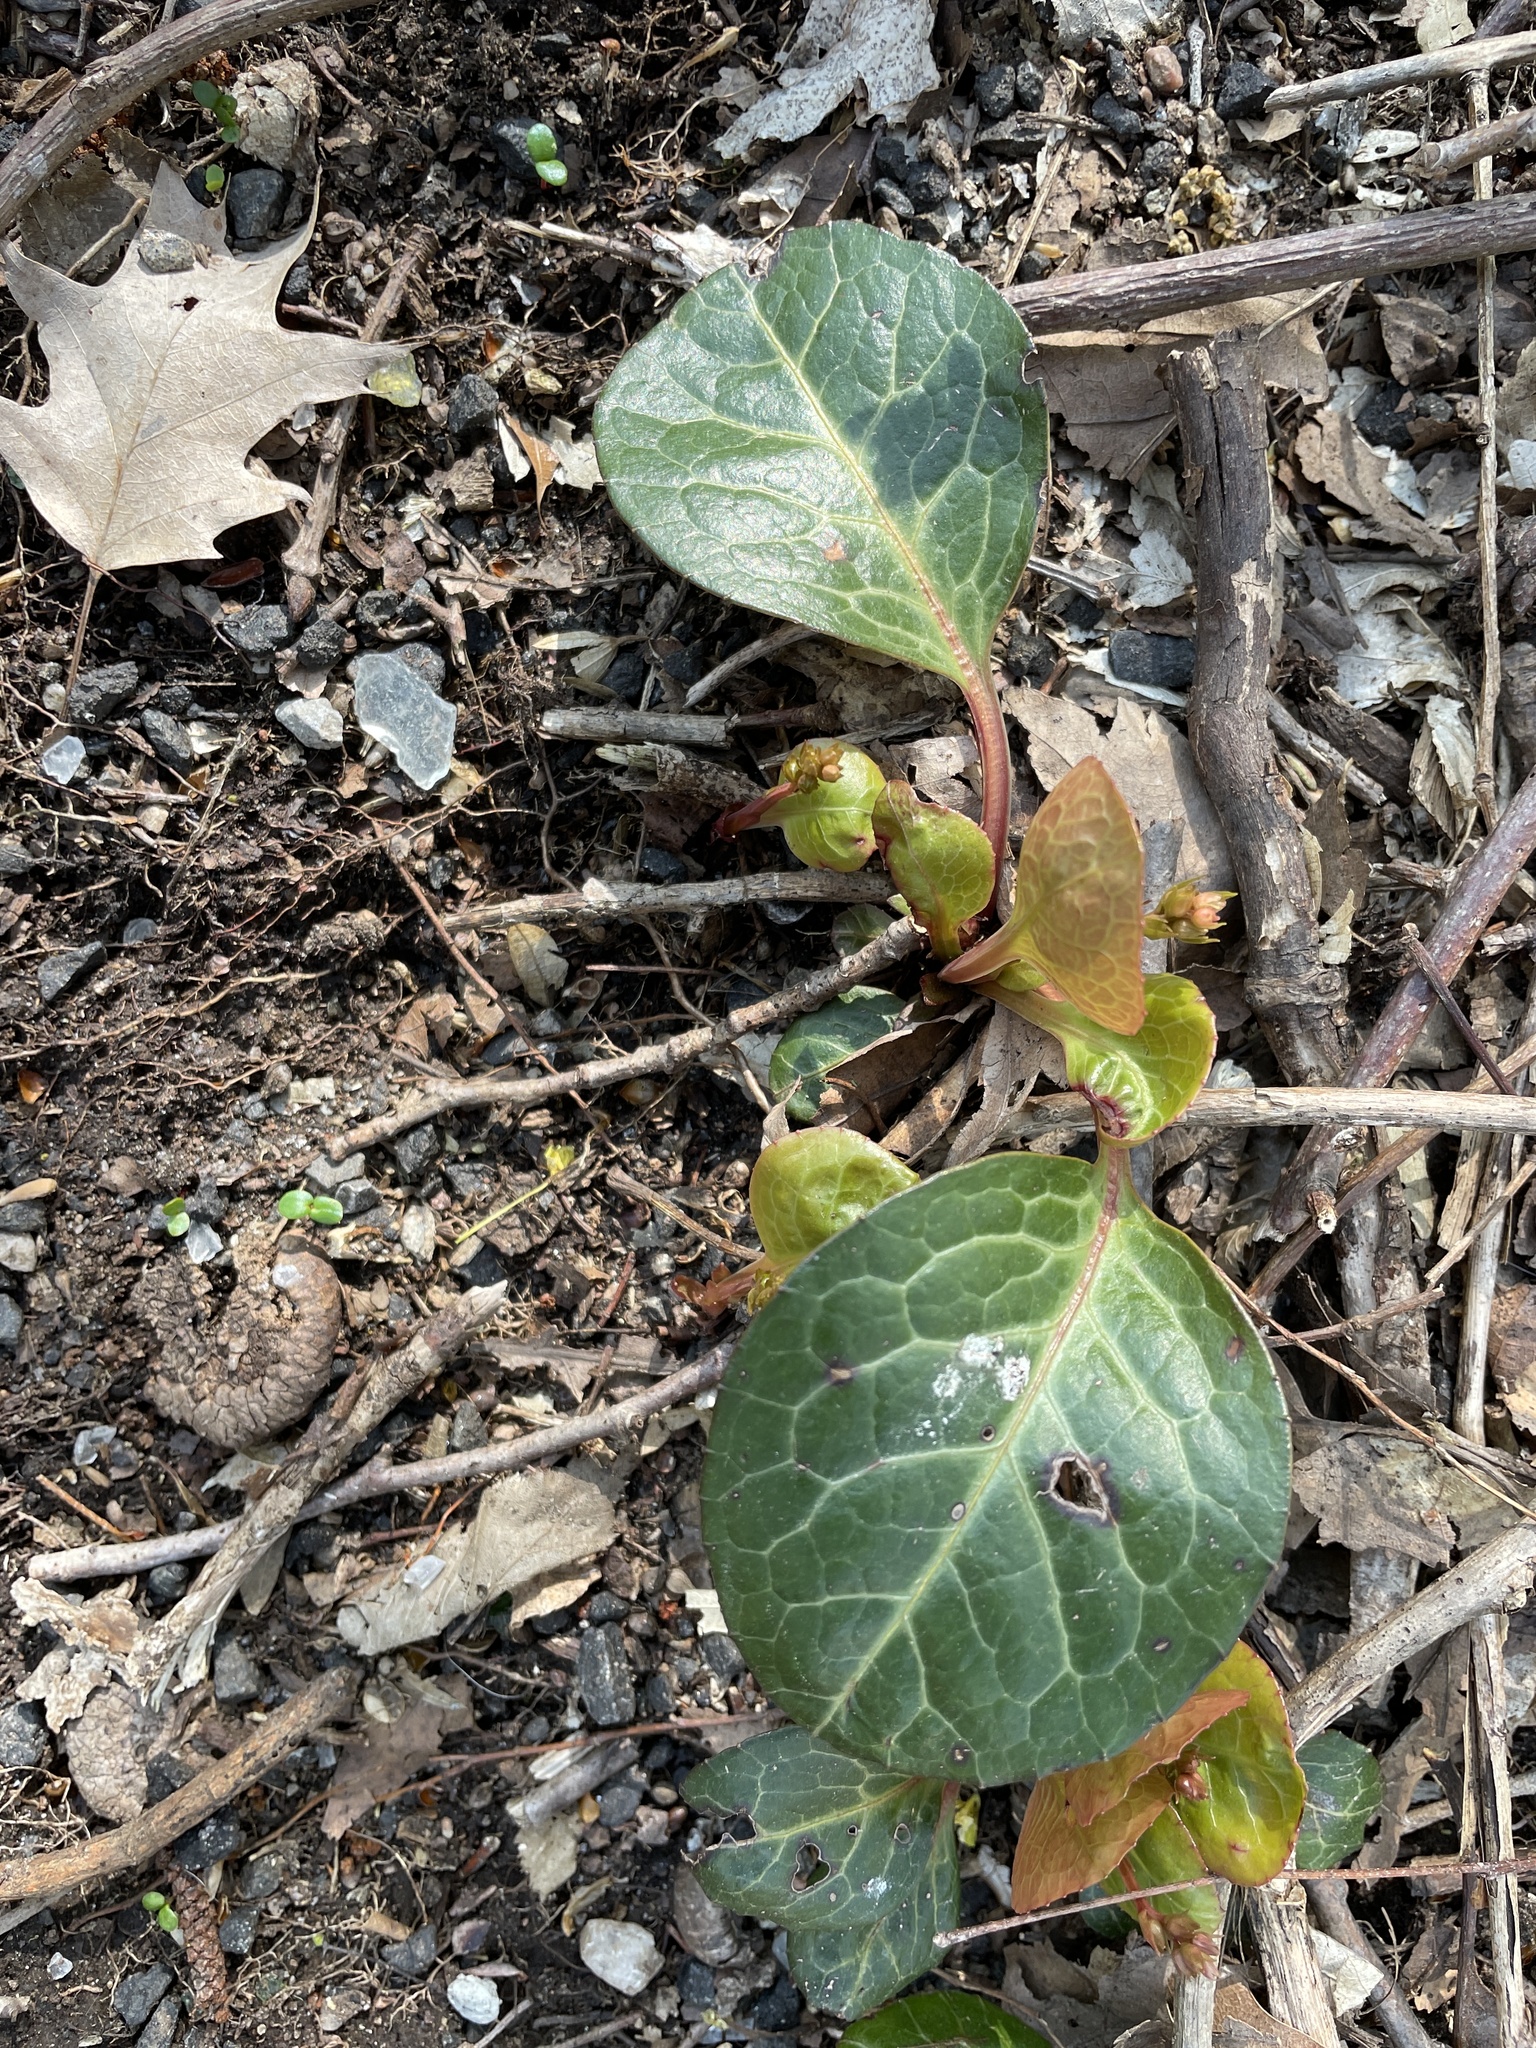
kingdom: Plantae
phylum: Tracheophyta
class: Magnoliopsida
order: Ericales
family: Ericaceae
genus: Pyrola
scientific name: Pyrola americana
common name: American wintergreen
